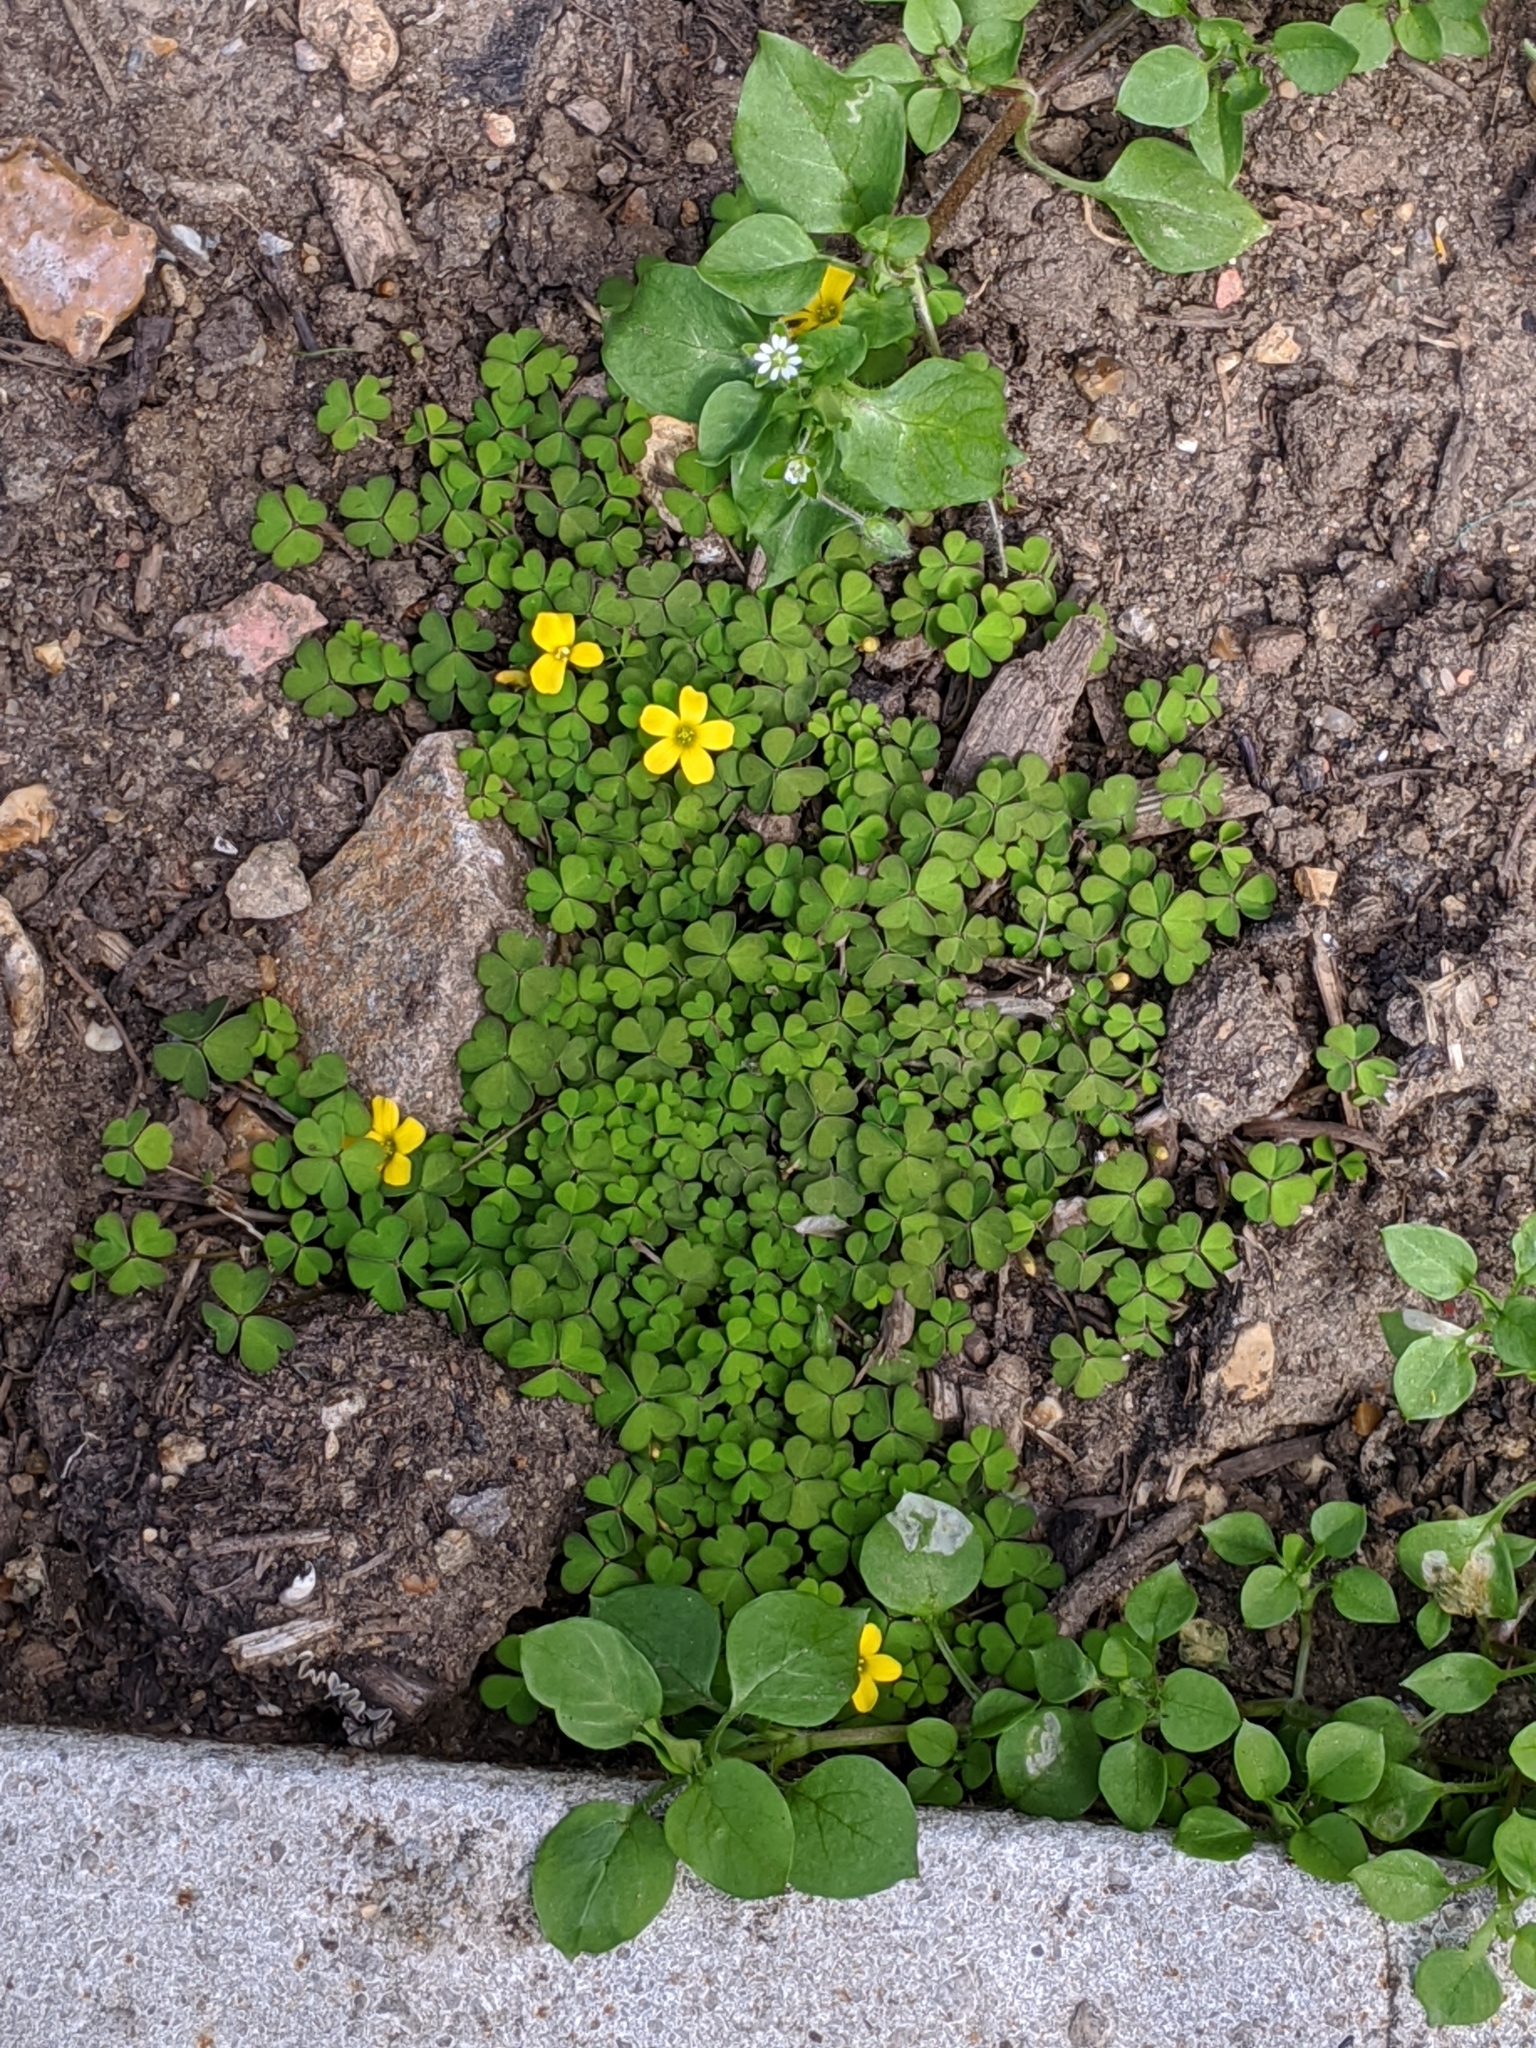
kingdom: Plantae
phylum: Tracheophyta
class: Magnoliopsida
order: Oxalidales
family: Oxalidaceae
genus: Oxalis
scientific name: Oxalis exilis
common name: Least yellow-sorrel
